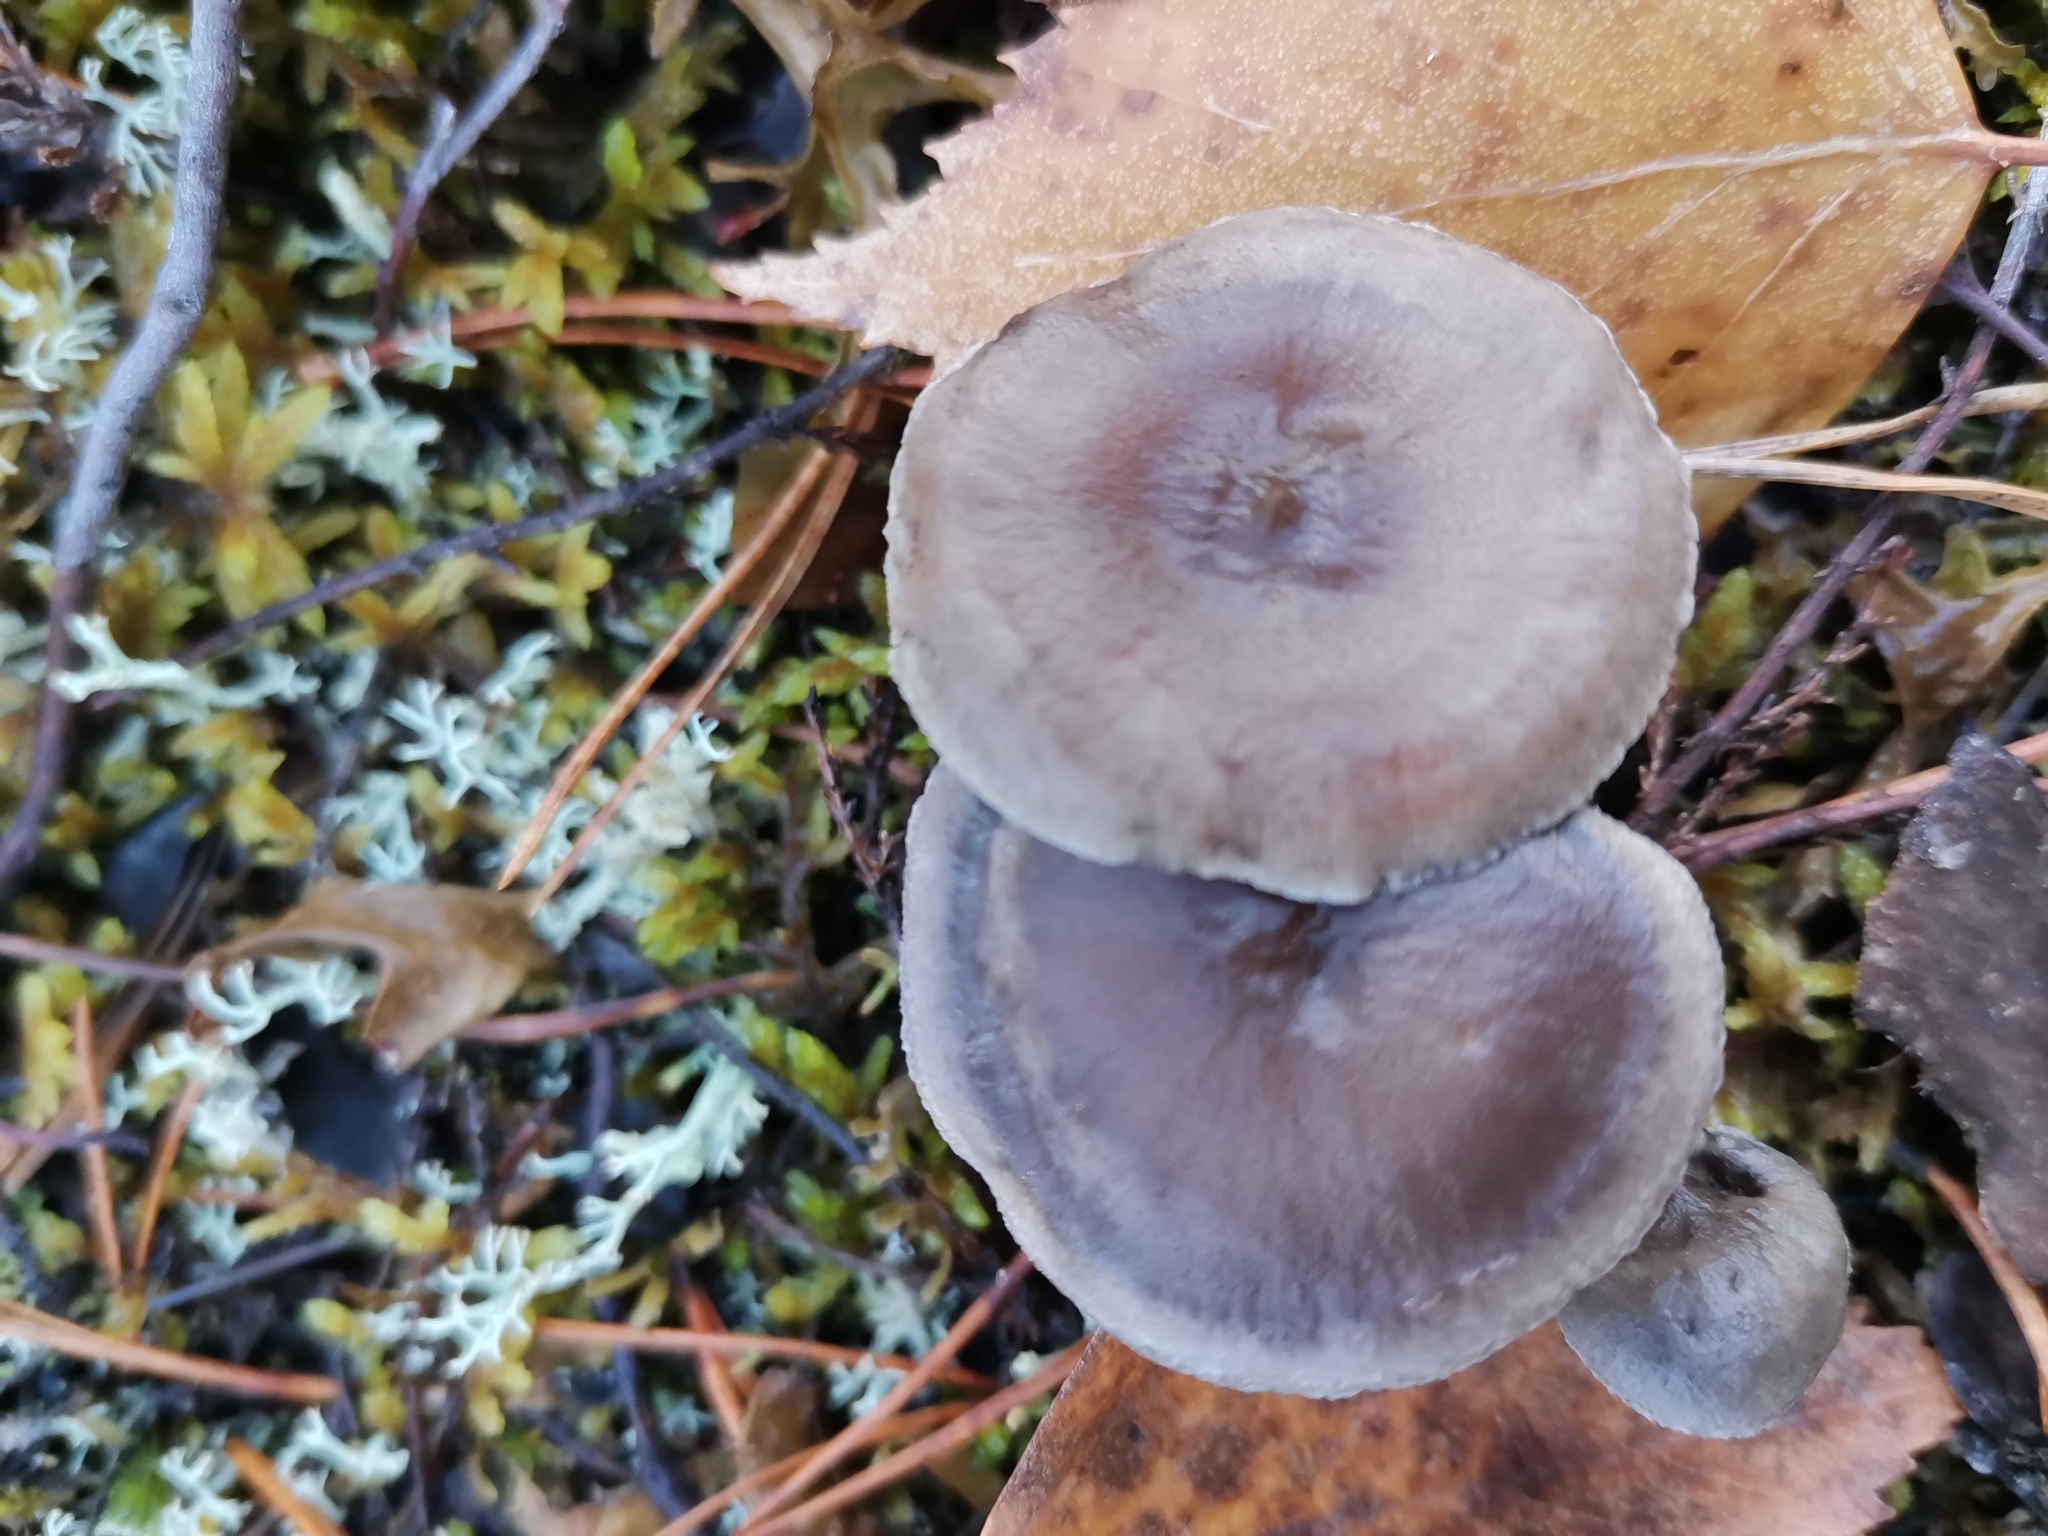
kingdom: Fungi
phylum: Basidiomycota
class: Agaricomycetes
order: Agaricales
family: Hygrophoraceae
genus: Cantharellula
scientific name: Cantharellula umbonata
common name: The humpback
